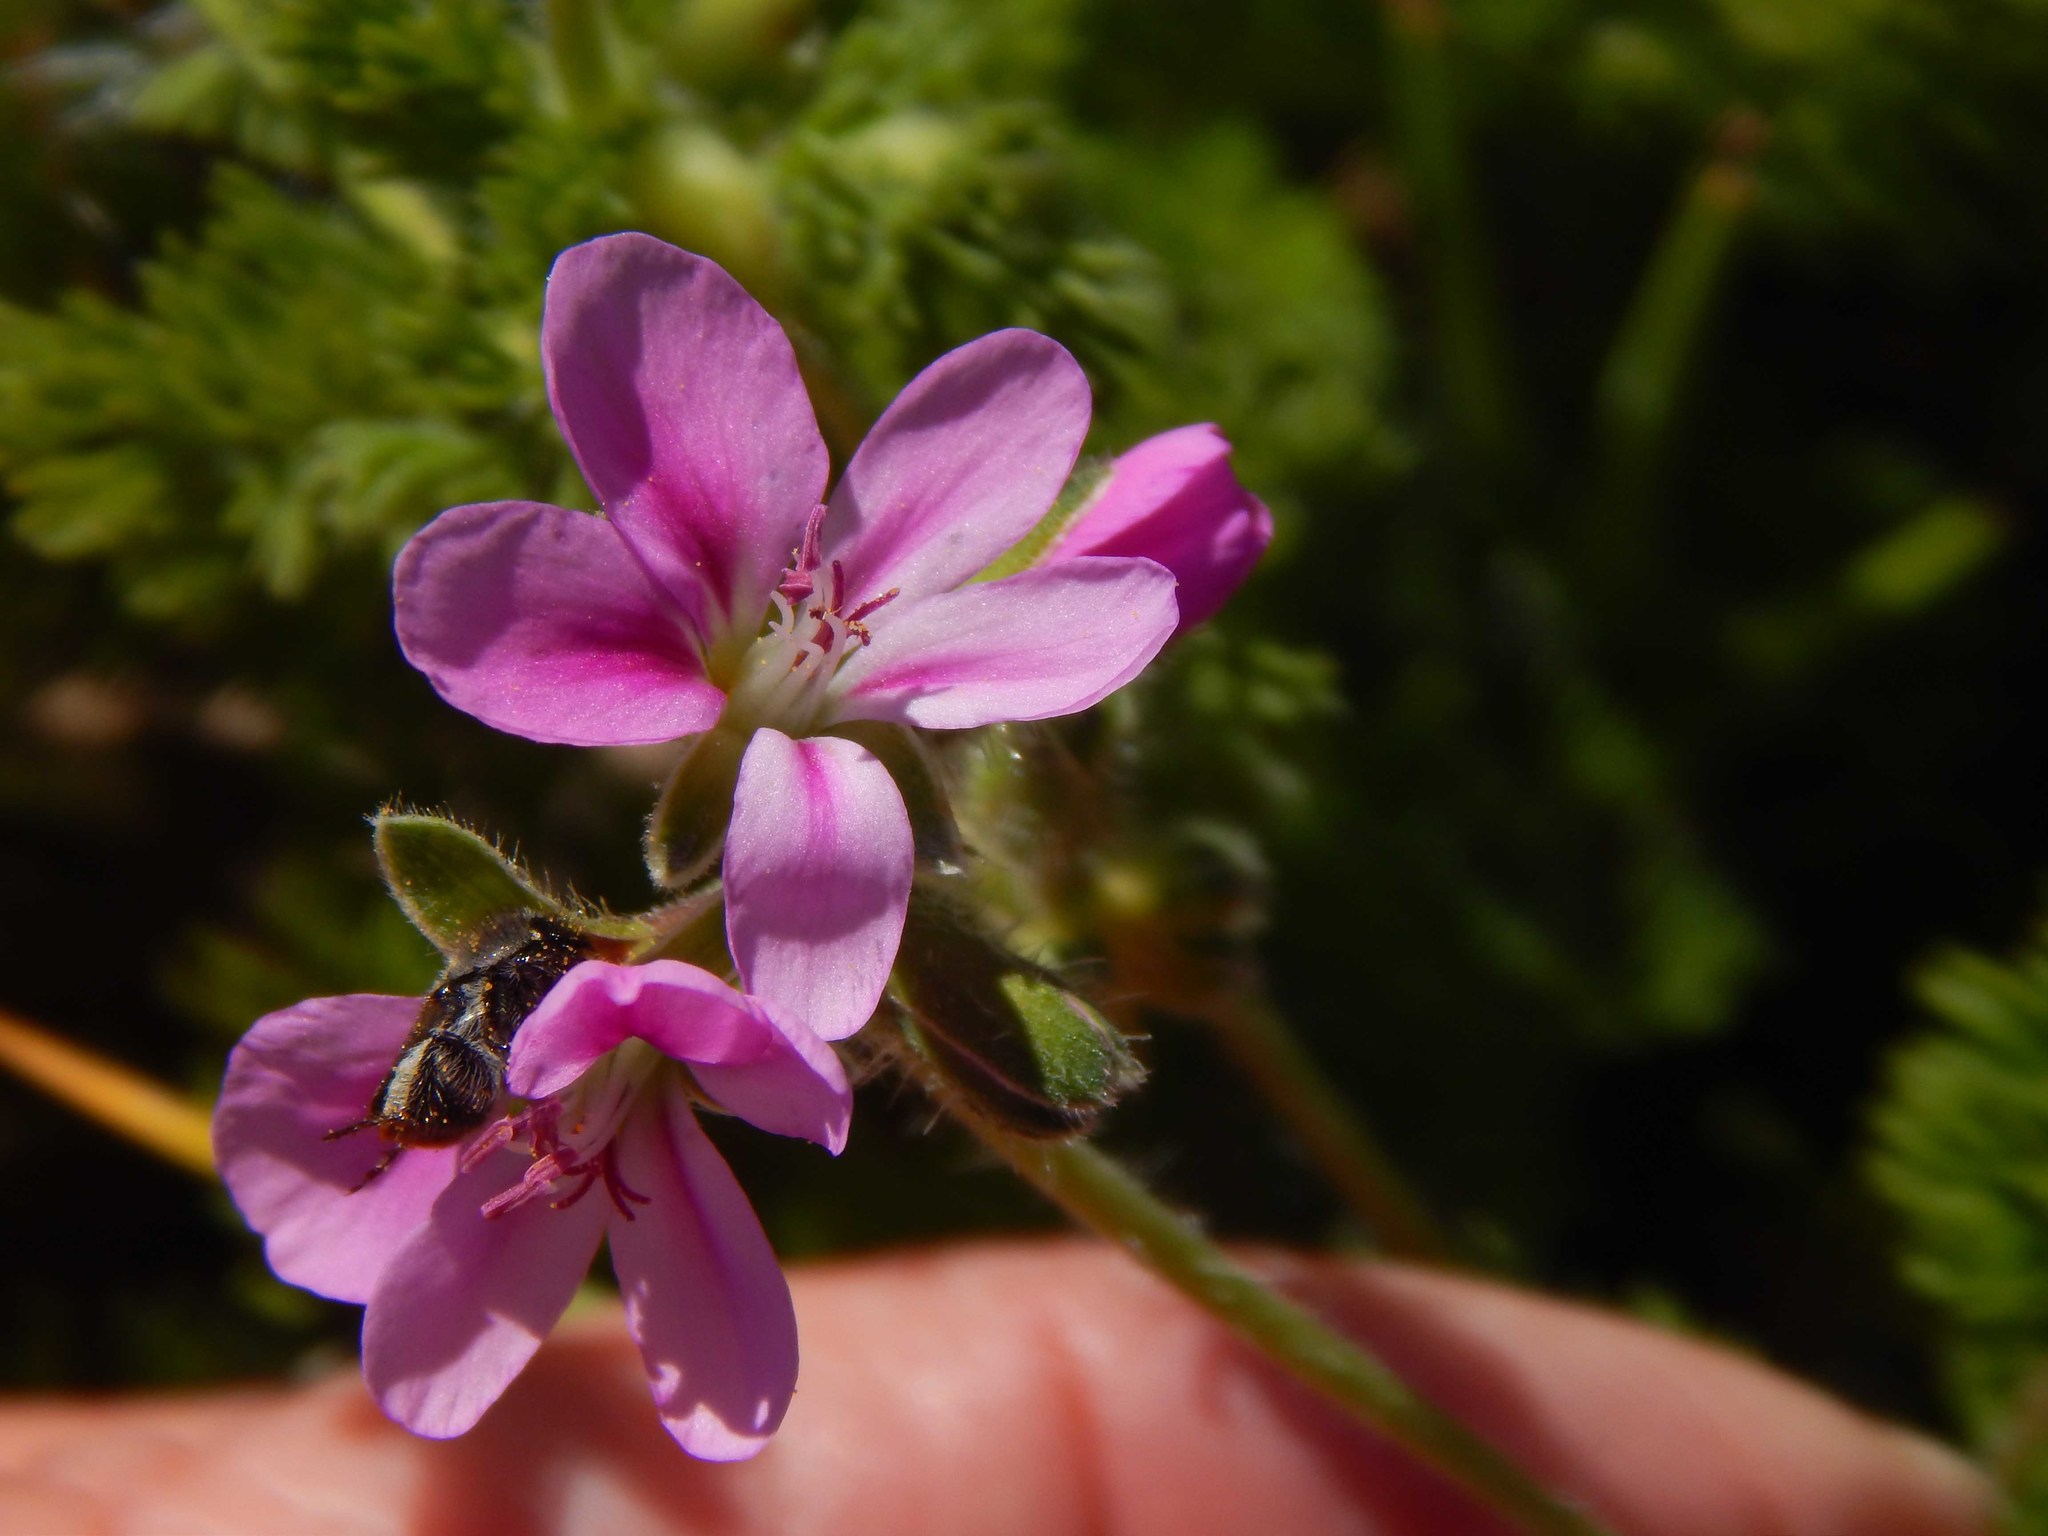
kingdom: Plantae
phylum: Tracheophyta
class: Magnoliopsida
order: Geraniales
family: Geraniaceae
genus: Pelargonium
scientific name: Pelargonium hirtum
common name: Fine-leaf pelargonium
